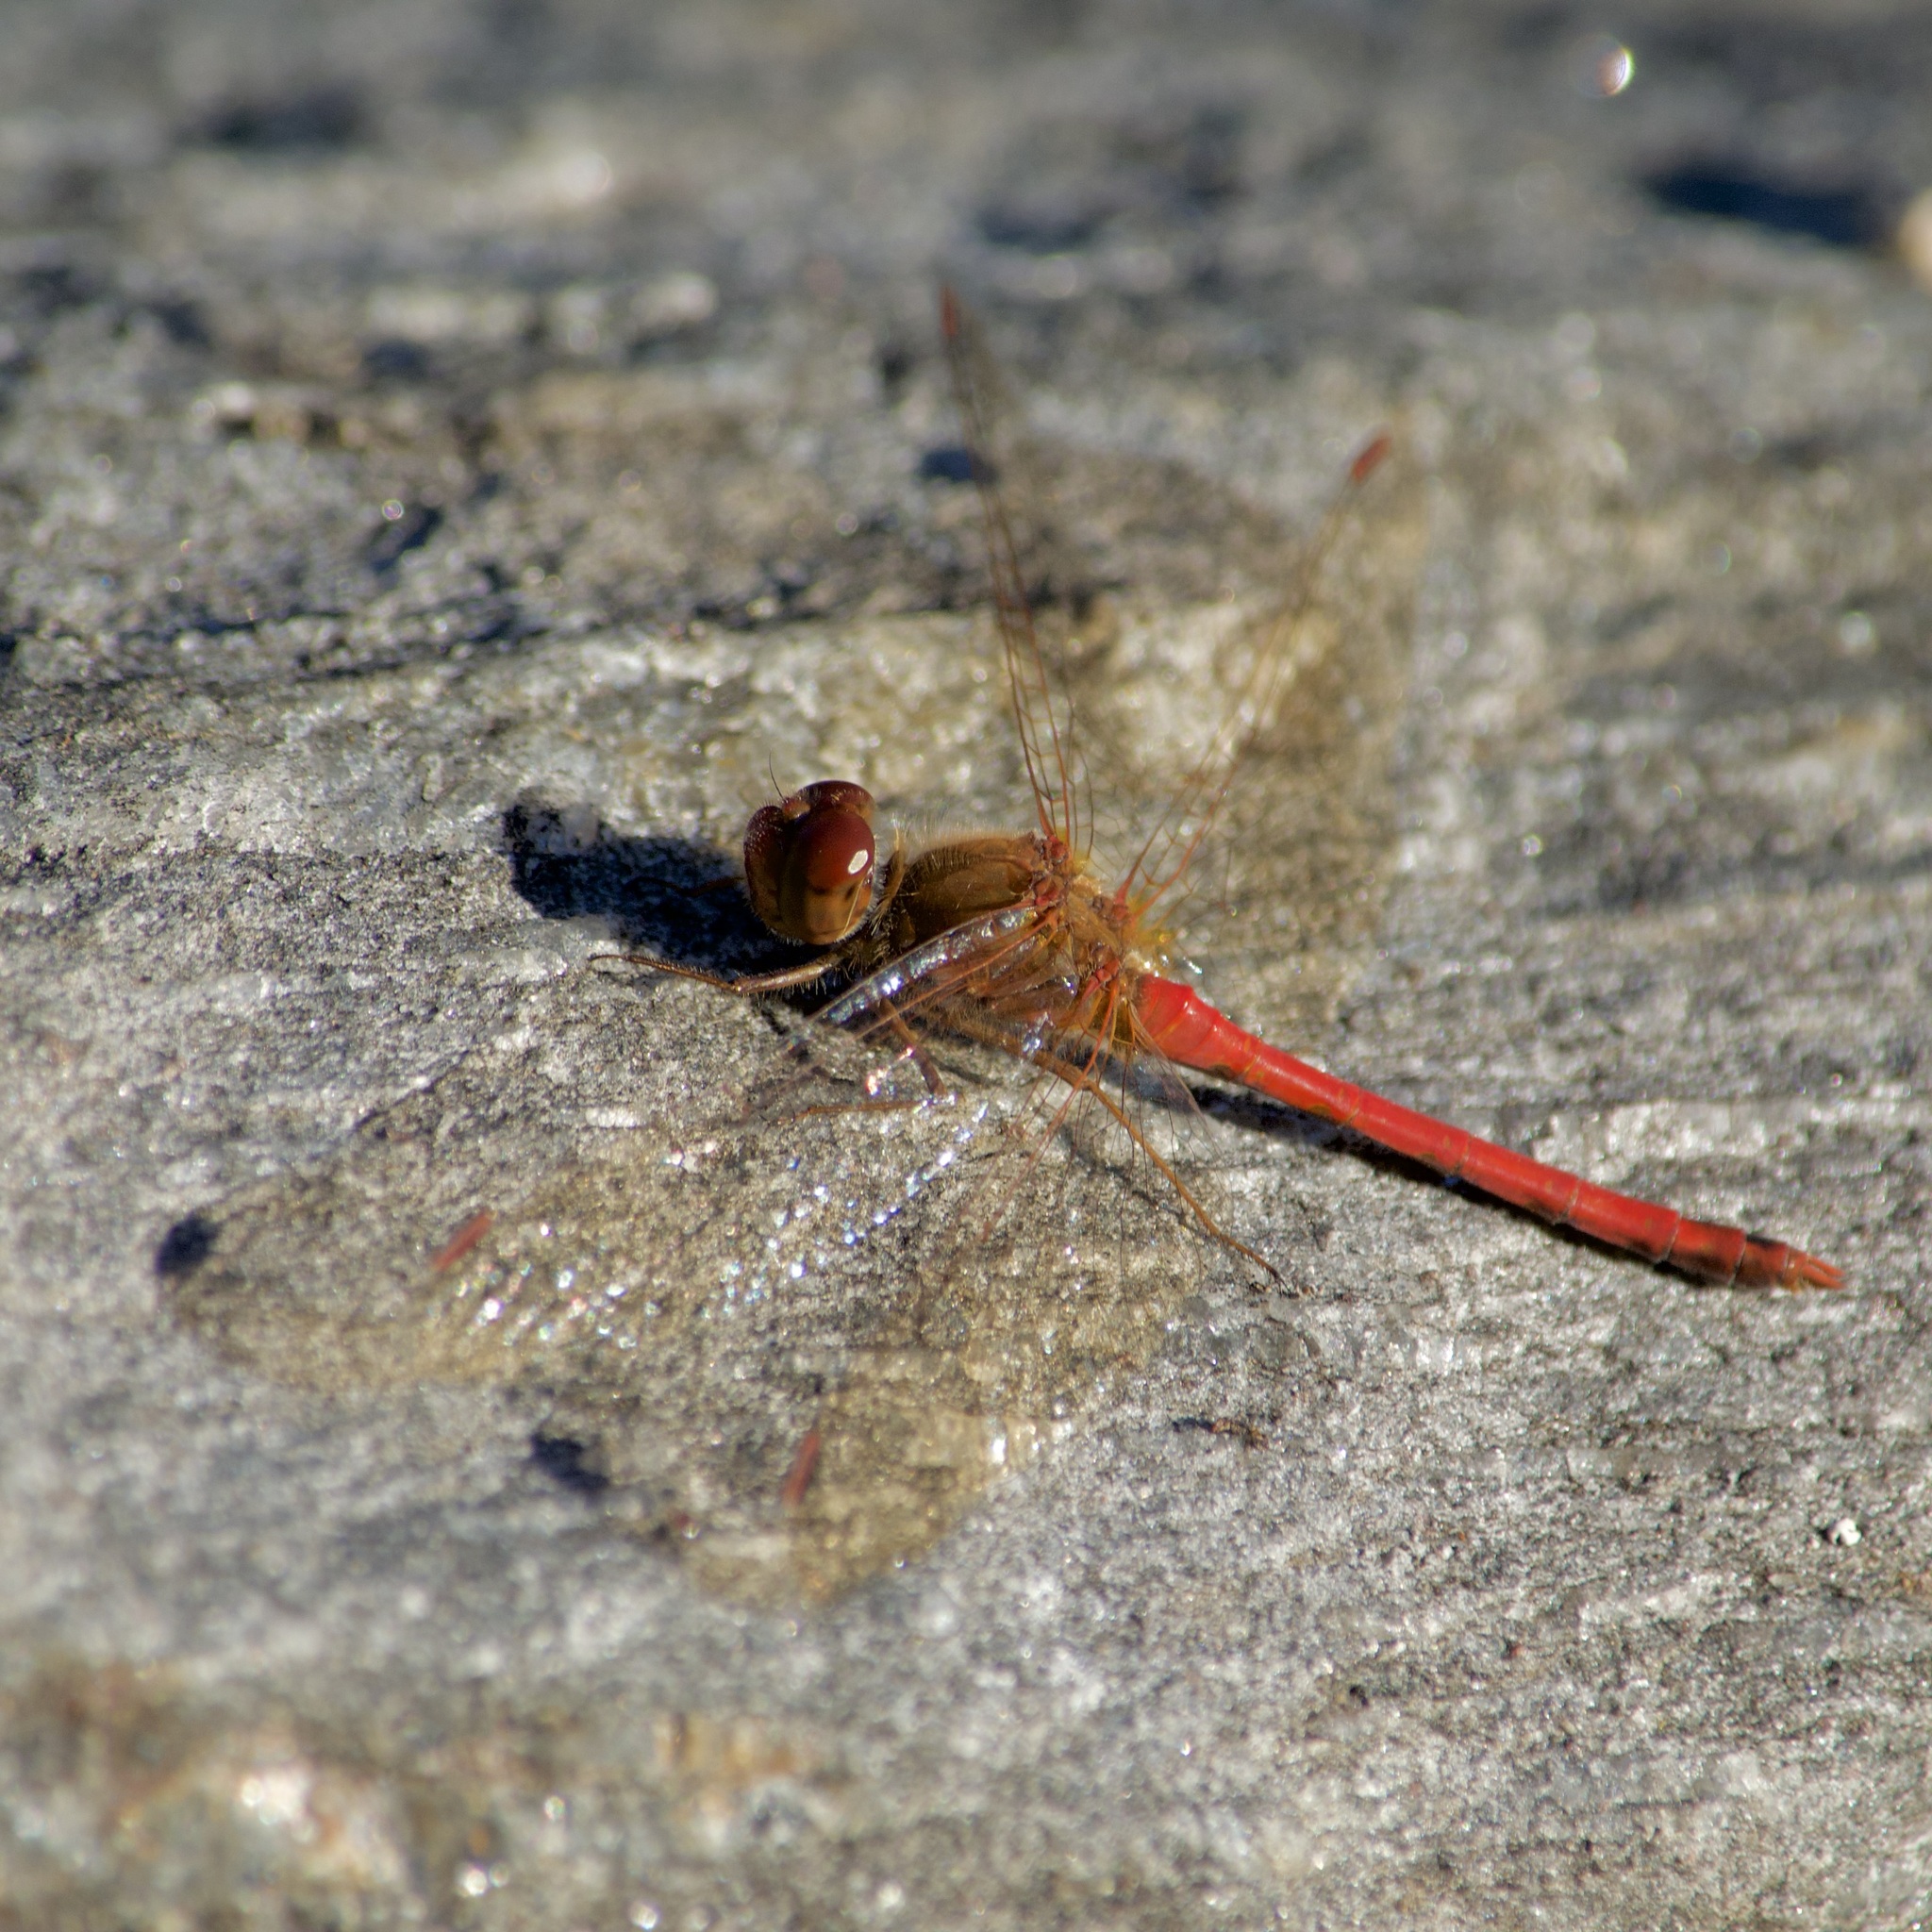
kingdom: Animalia
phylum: Arthropoda
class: Insecta
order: Odonata
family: Libellulidae
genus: Sympetrum
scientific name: Sympetrum vicinum
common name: Autumn meadowhawk
